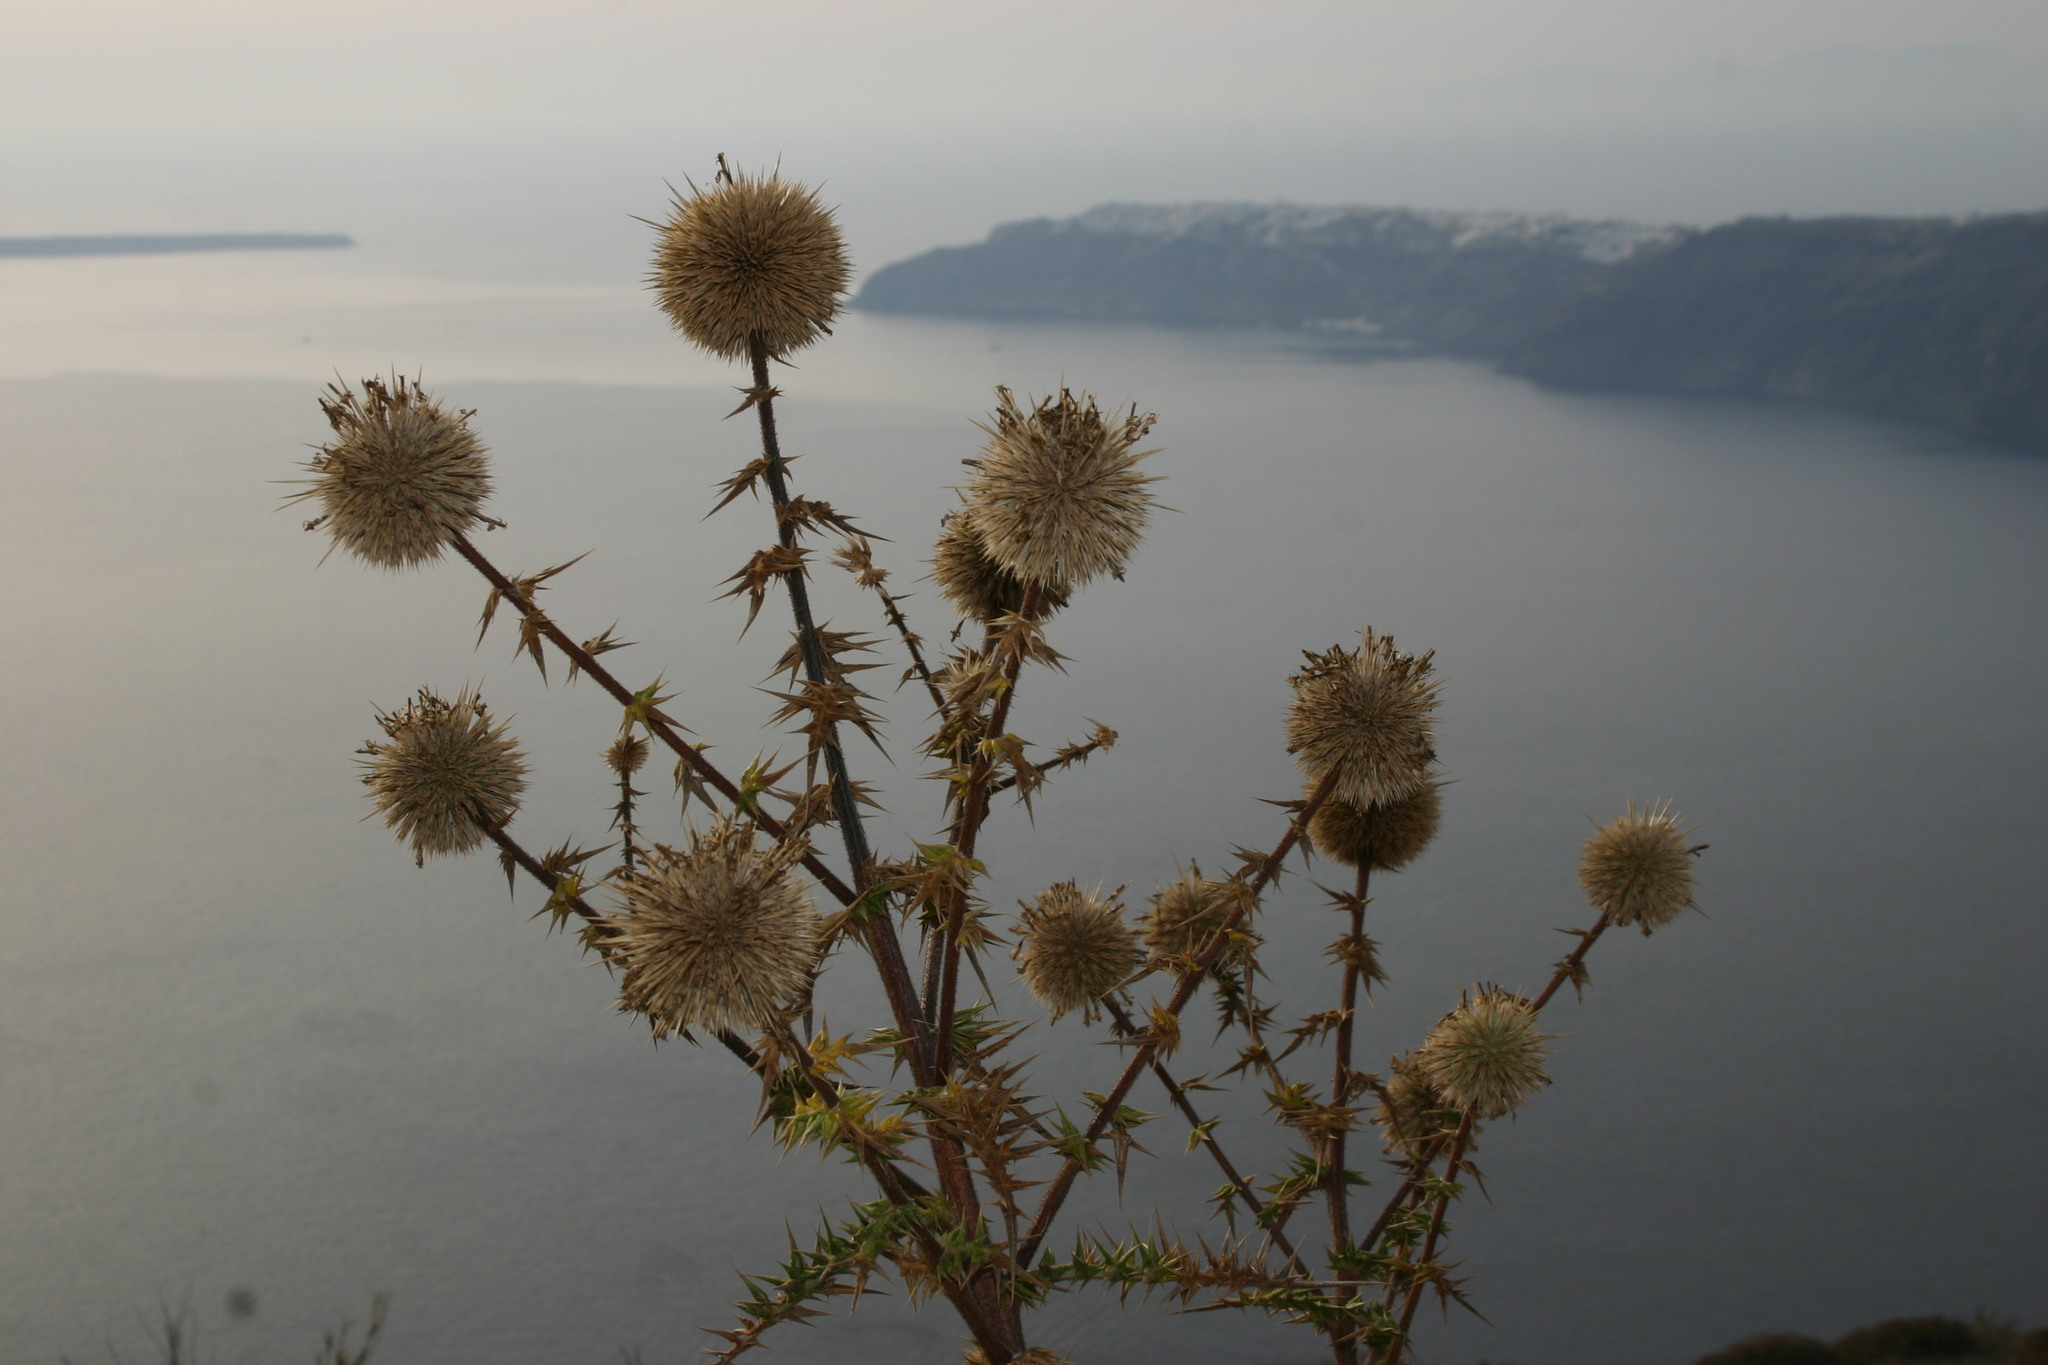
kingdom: Plantae
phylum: Tracheophyta
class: Magnoliopsida
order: Asterales
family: Asteraceae
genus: Echinops
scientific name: Echinops spinosissimus
